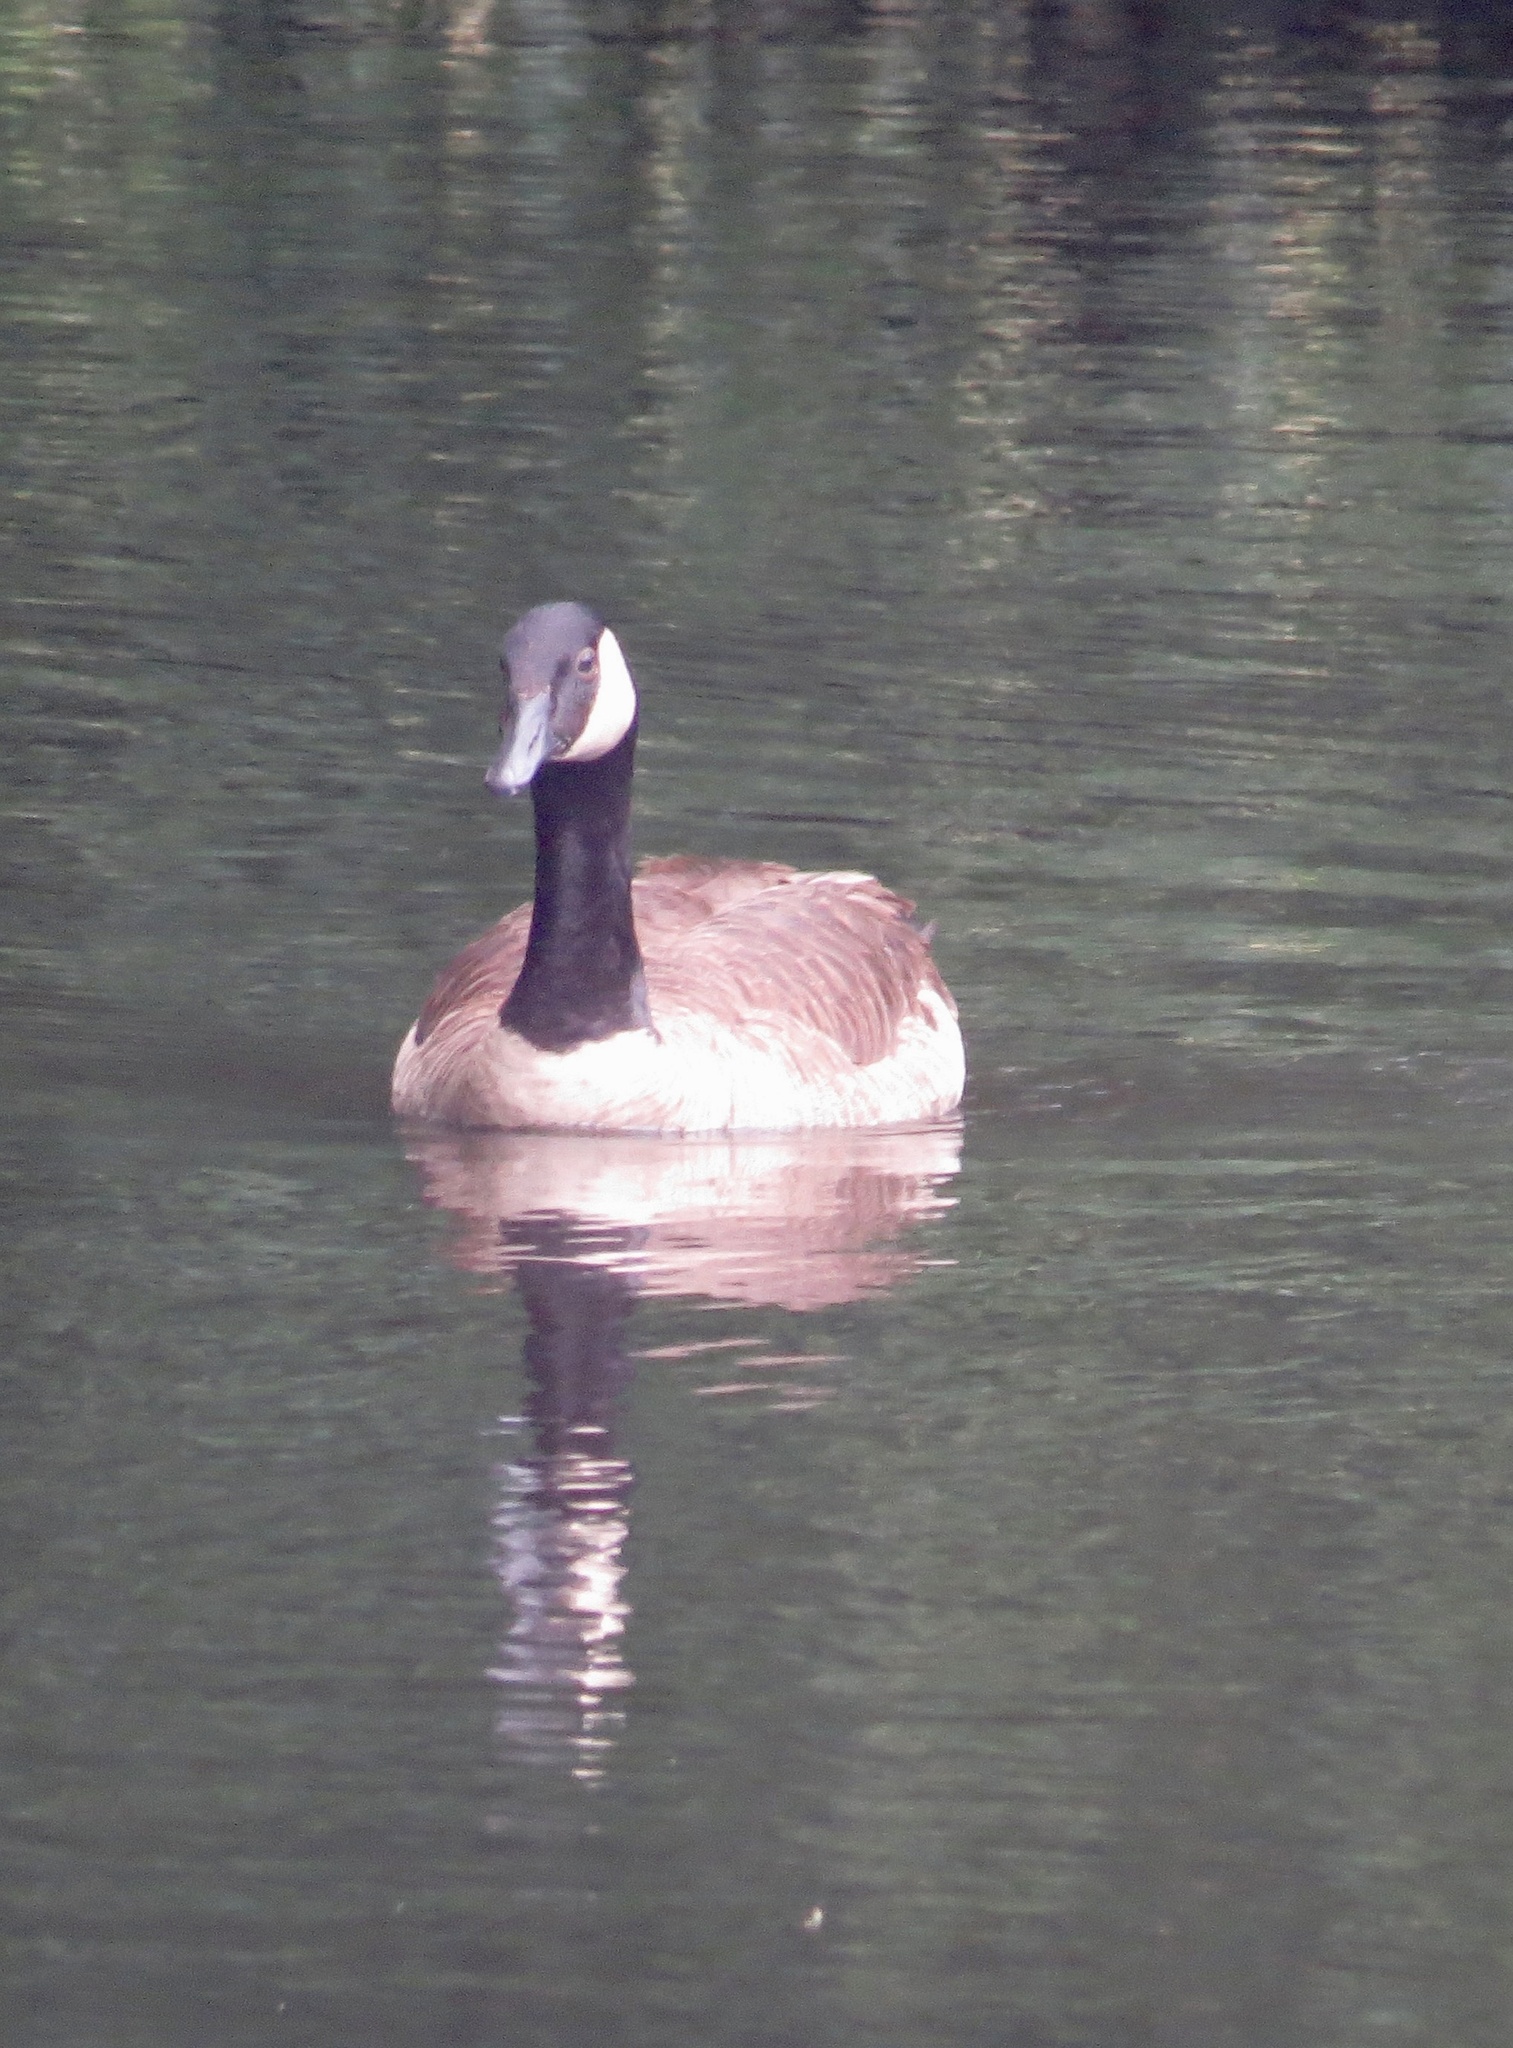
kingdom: Animalia
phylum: Chordata
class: Aves
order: Anseriformes
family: Anatidae
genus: Branta
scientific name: Branta canadensis
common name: Canada goose
